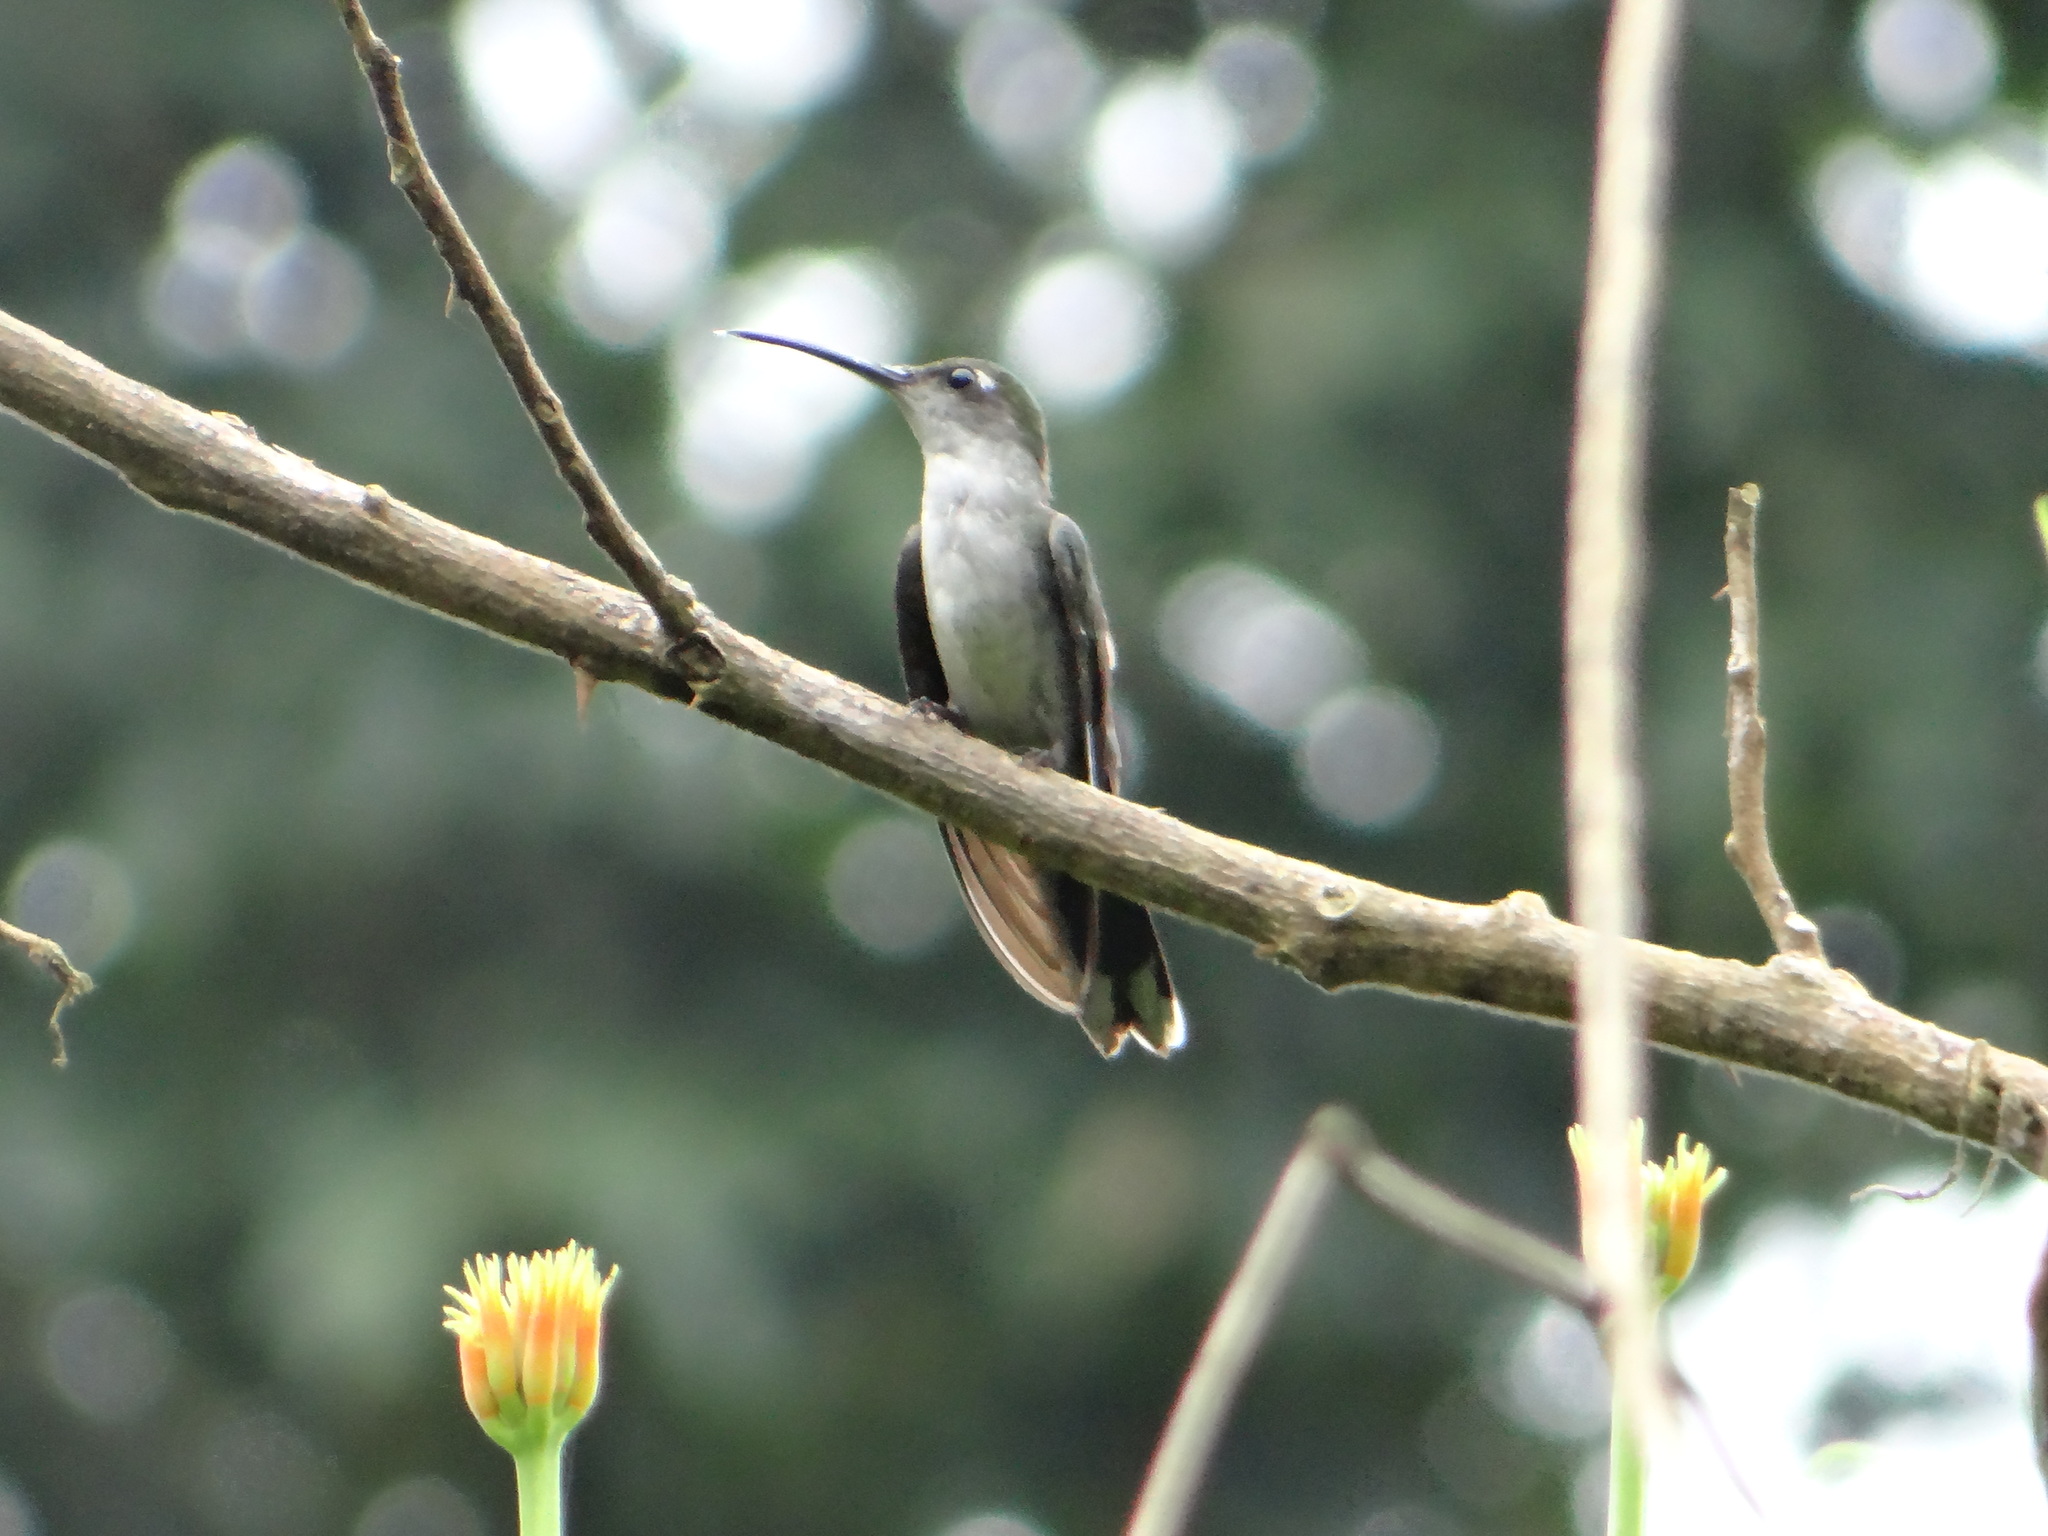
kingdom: Animalia
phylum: Chordata
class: Aves
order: Apodiformes
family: Trochilidae
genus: Campylopterus
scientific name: Campylopterus largipennis
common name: Gray-breasted sabrewing
